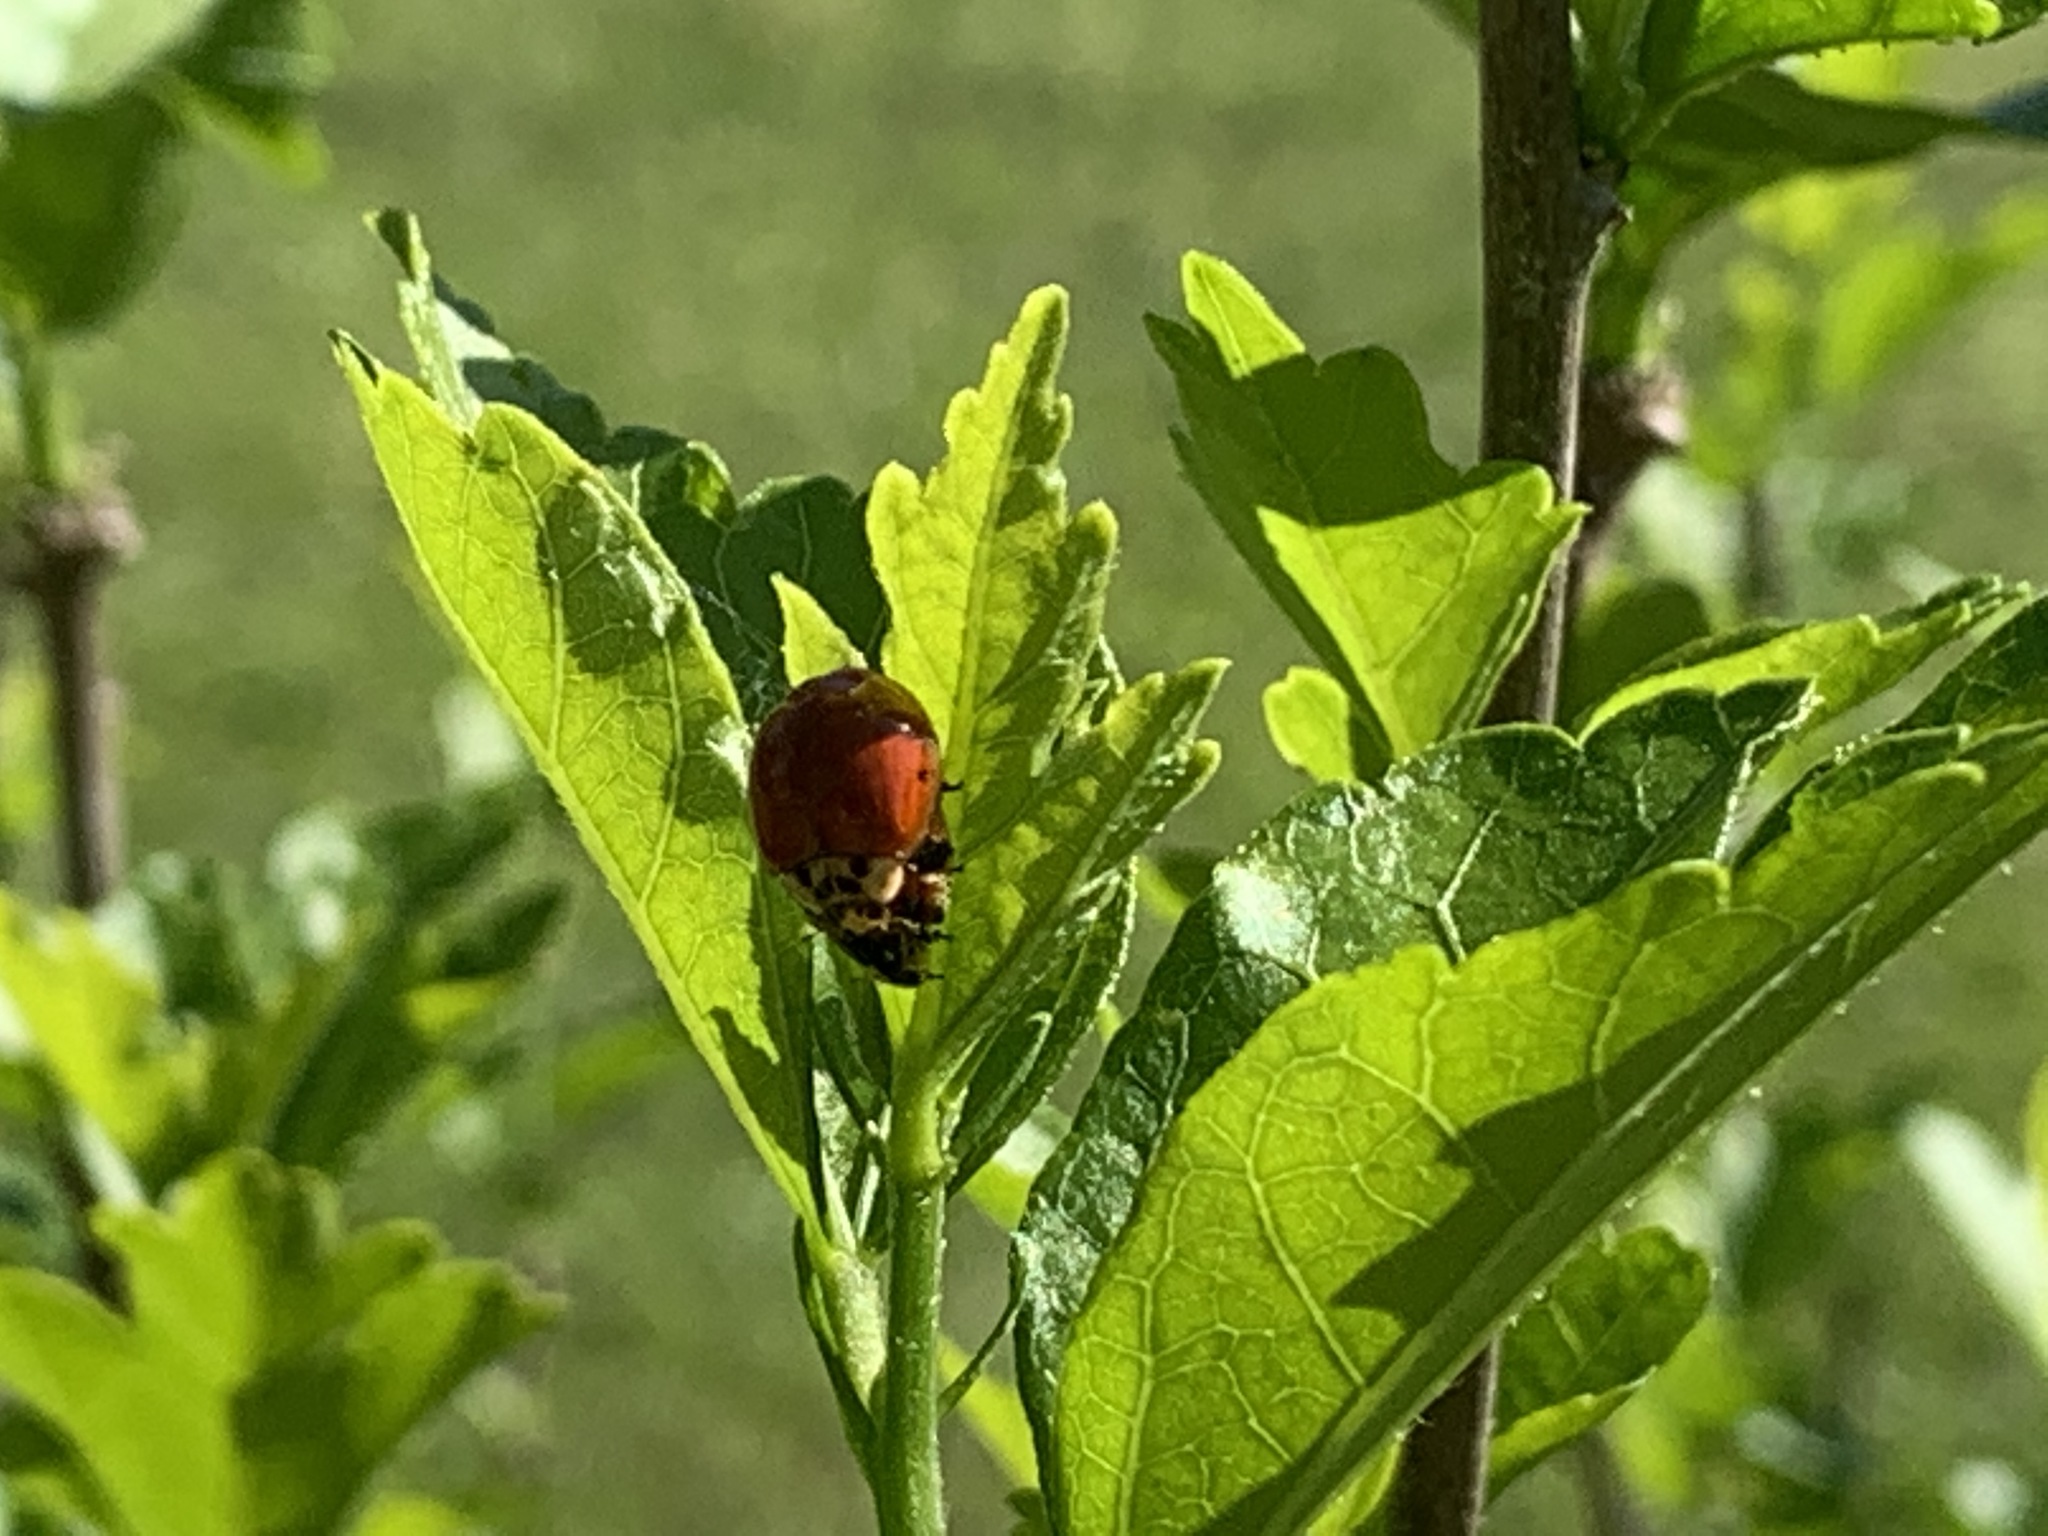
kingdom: Animalia
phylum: Arthropoda
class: Insecta
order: Coleoptera
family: Coccinellidae
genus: Harmonia
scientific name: Harmonia axyridis
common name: Harlequin ladybird
